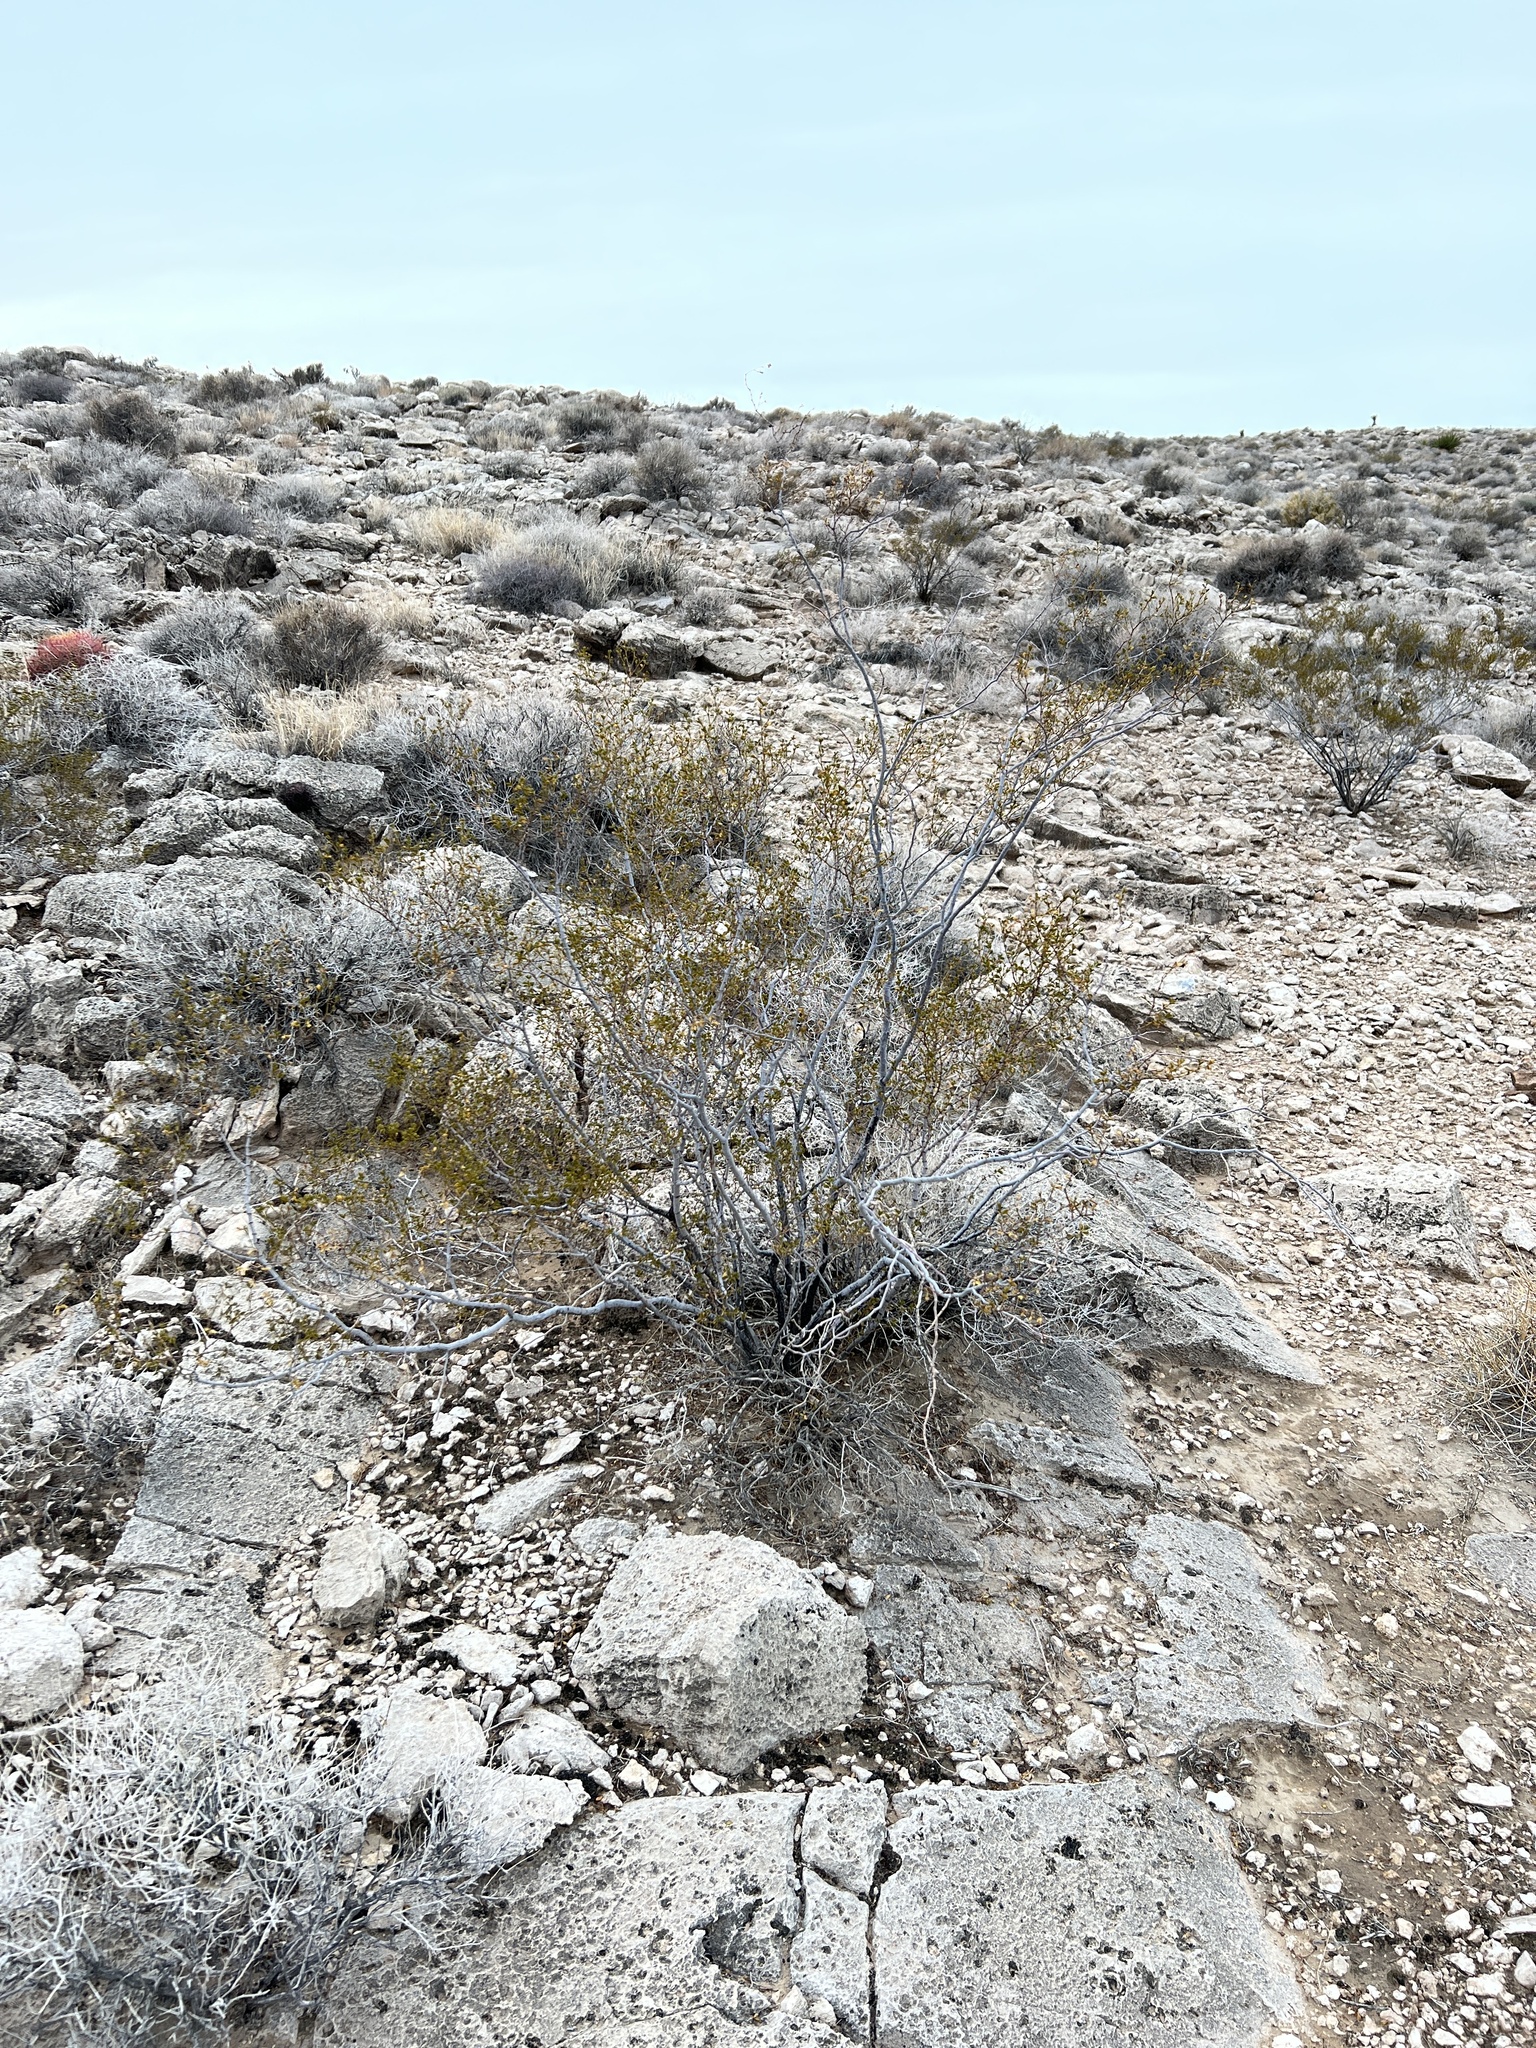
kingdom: Plantae
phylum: Tracheophyta
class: Magnoliopsida
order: Zygophyllales
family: Zygophyllaceae
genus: Larrea
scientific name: Larrea tridentata
